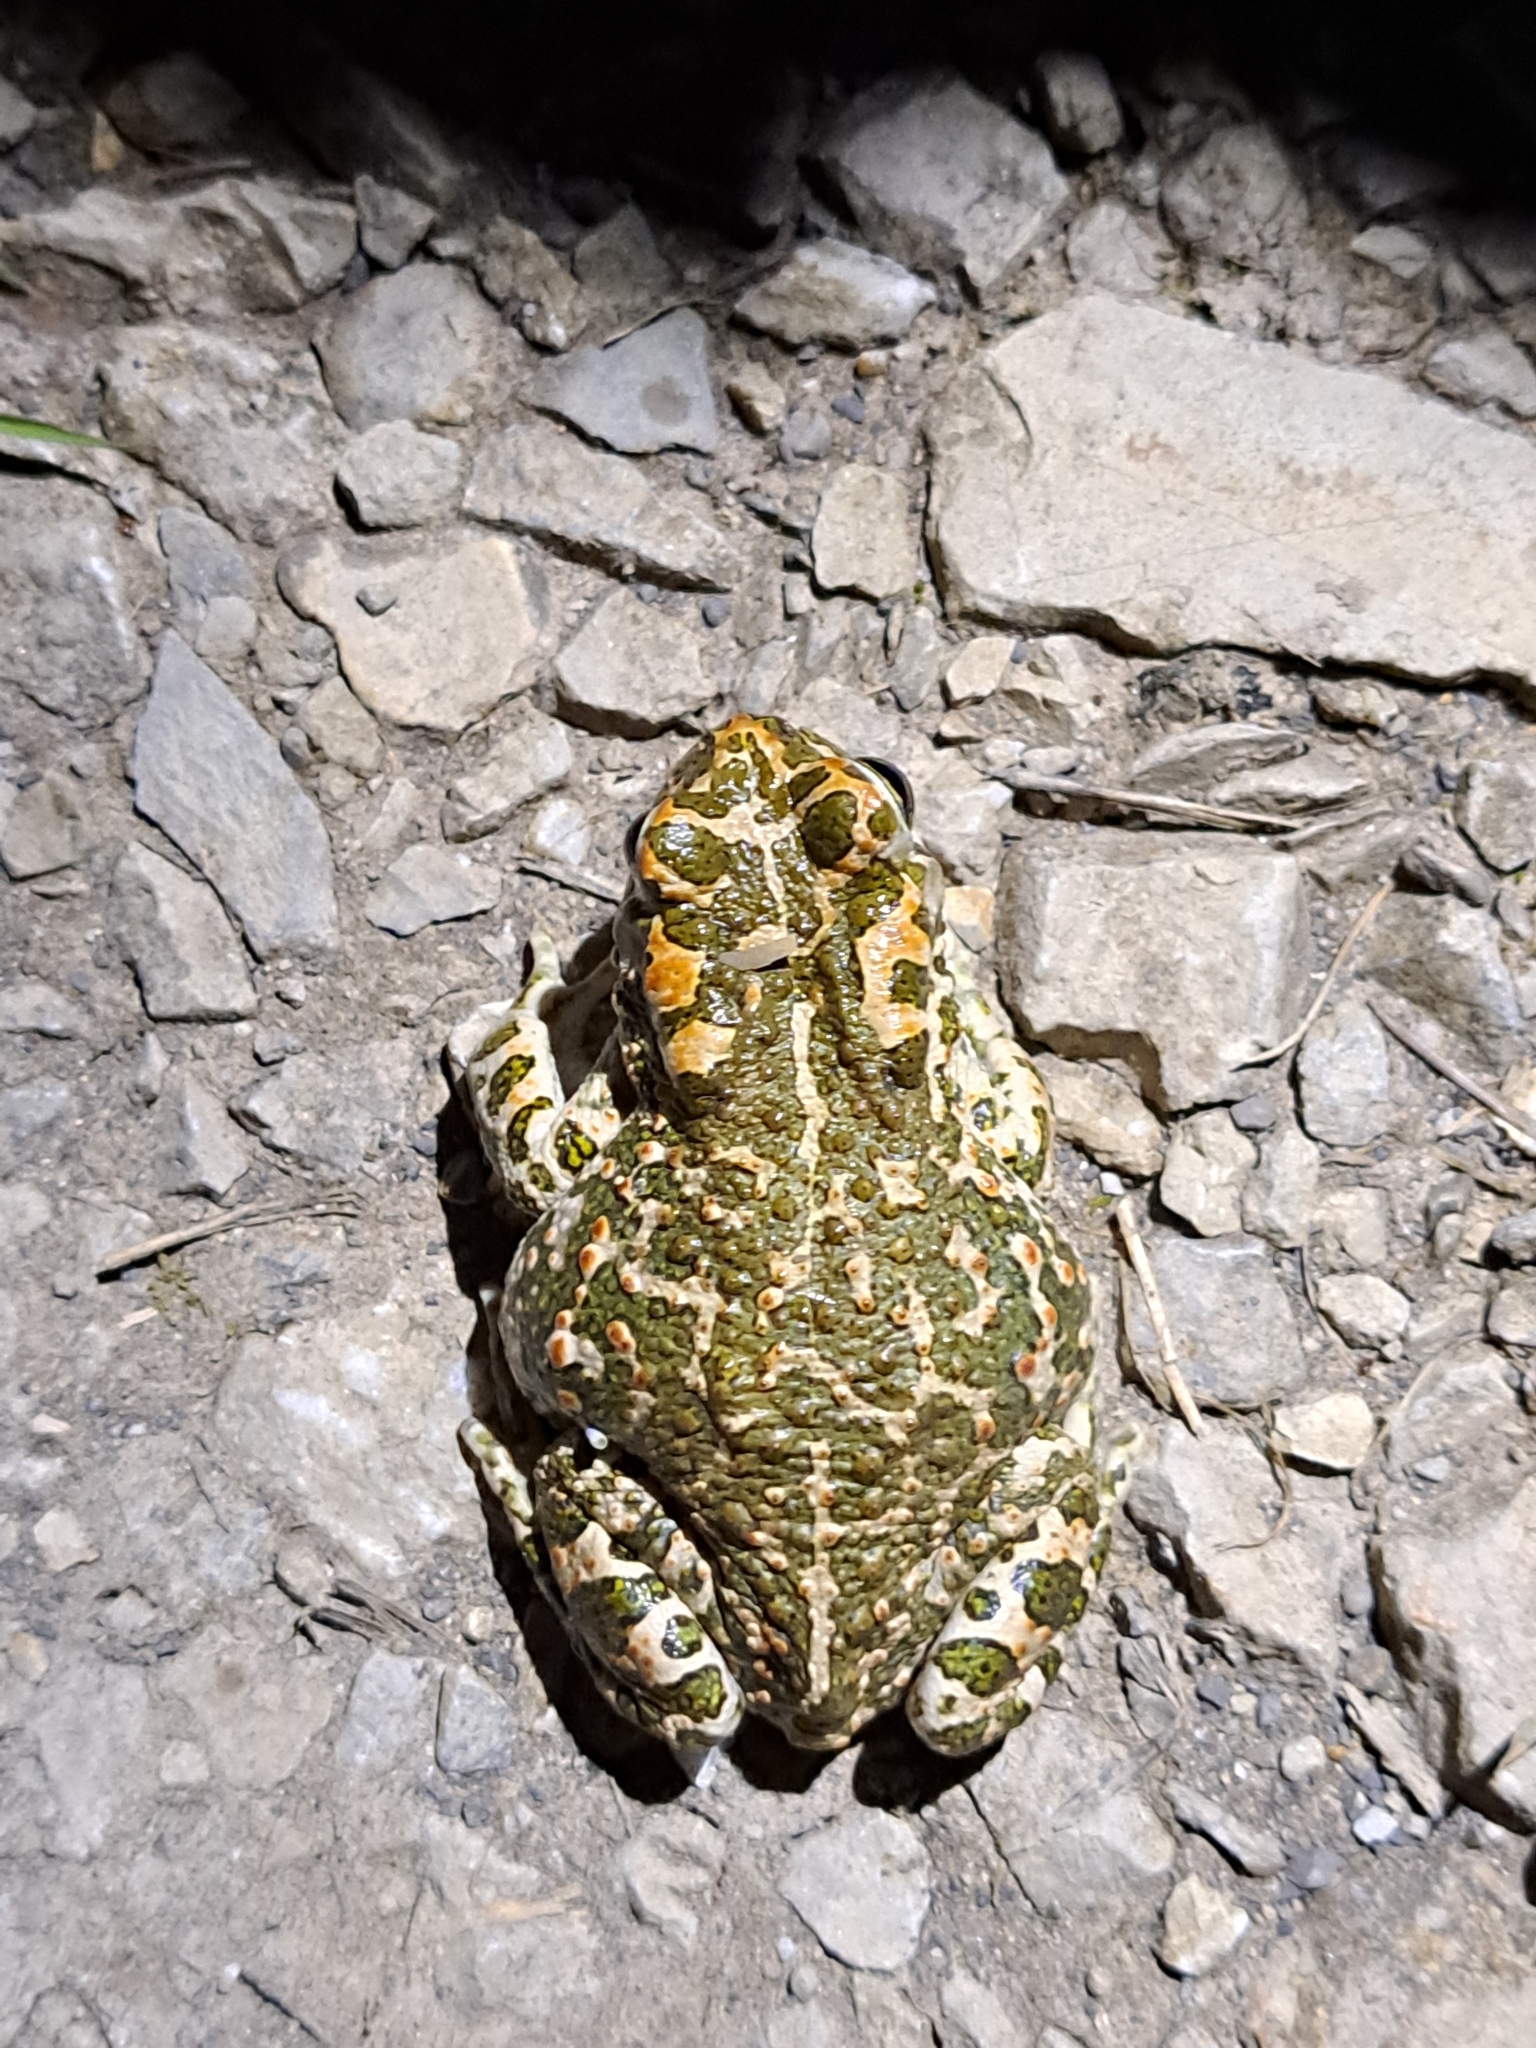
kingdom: Animalia
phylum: Chordata
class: Amphibia
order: Anura
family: Bufonidae
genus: Bufotes
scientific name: Bufotes viridis
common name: European green toad
